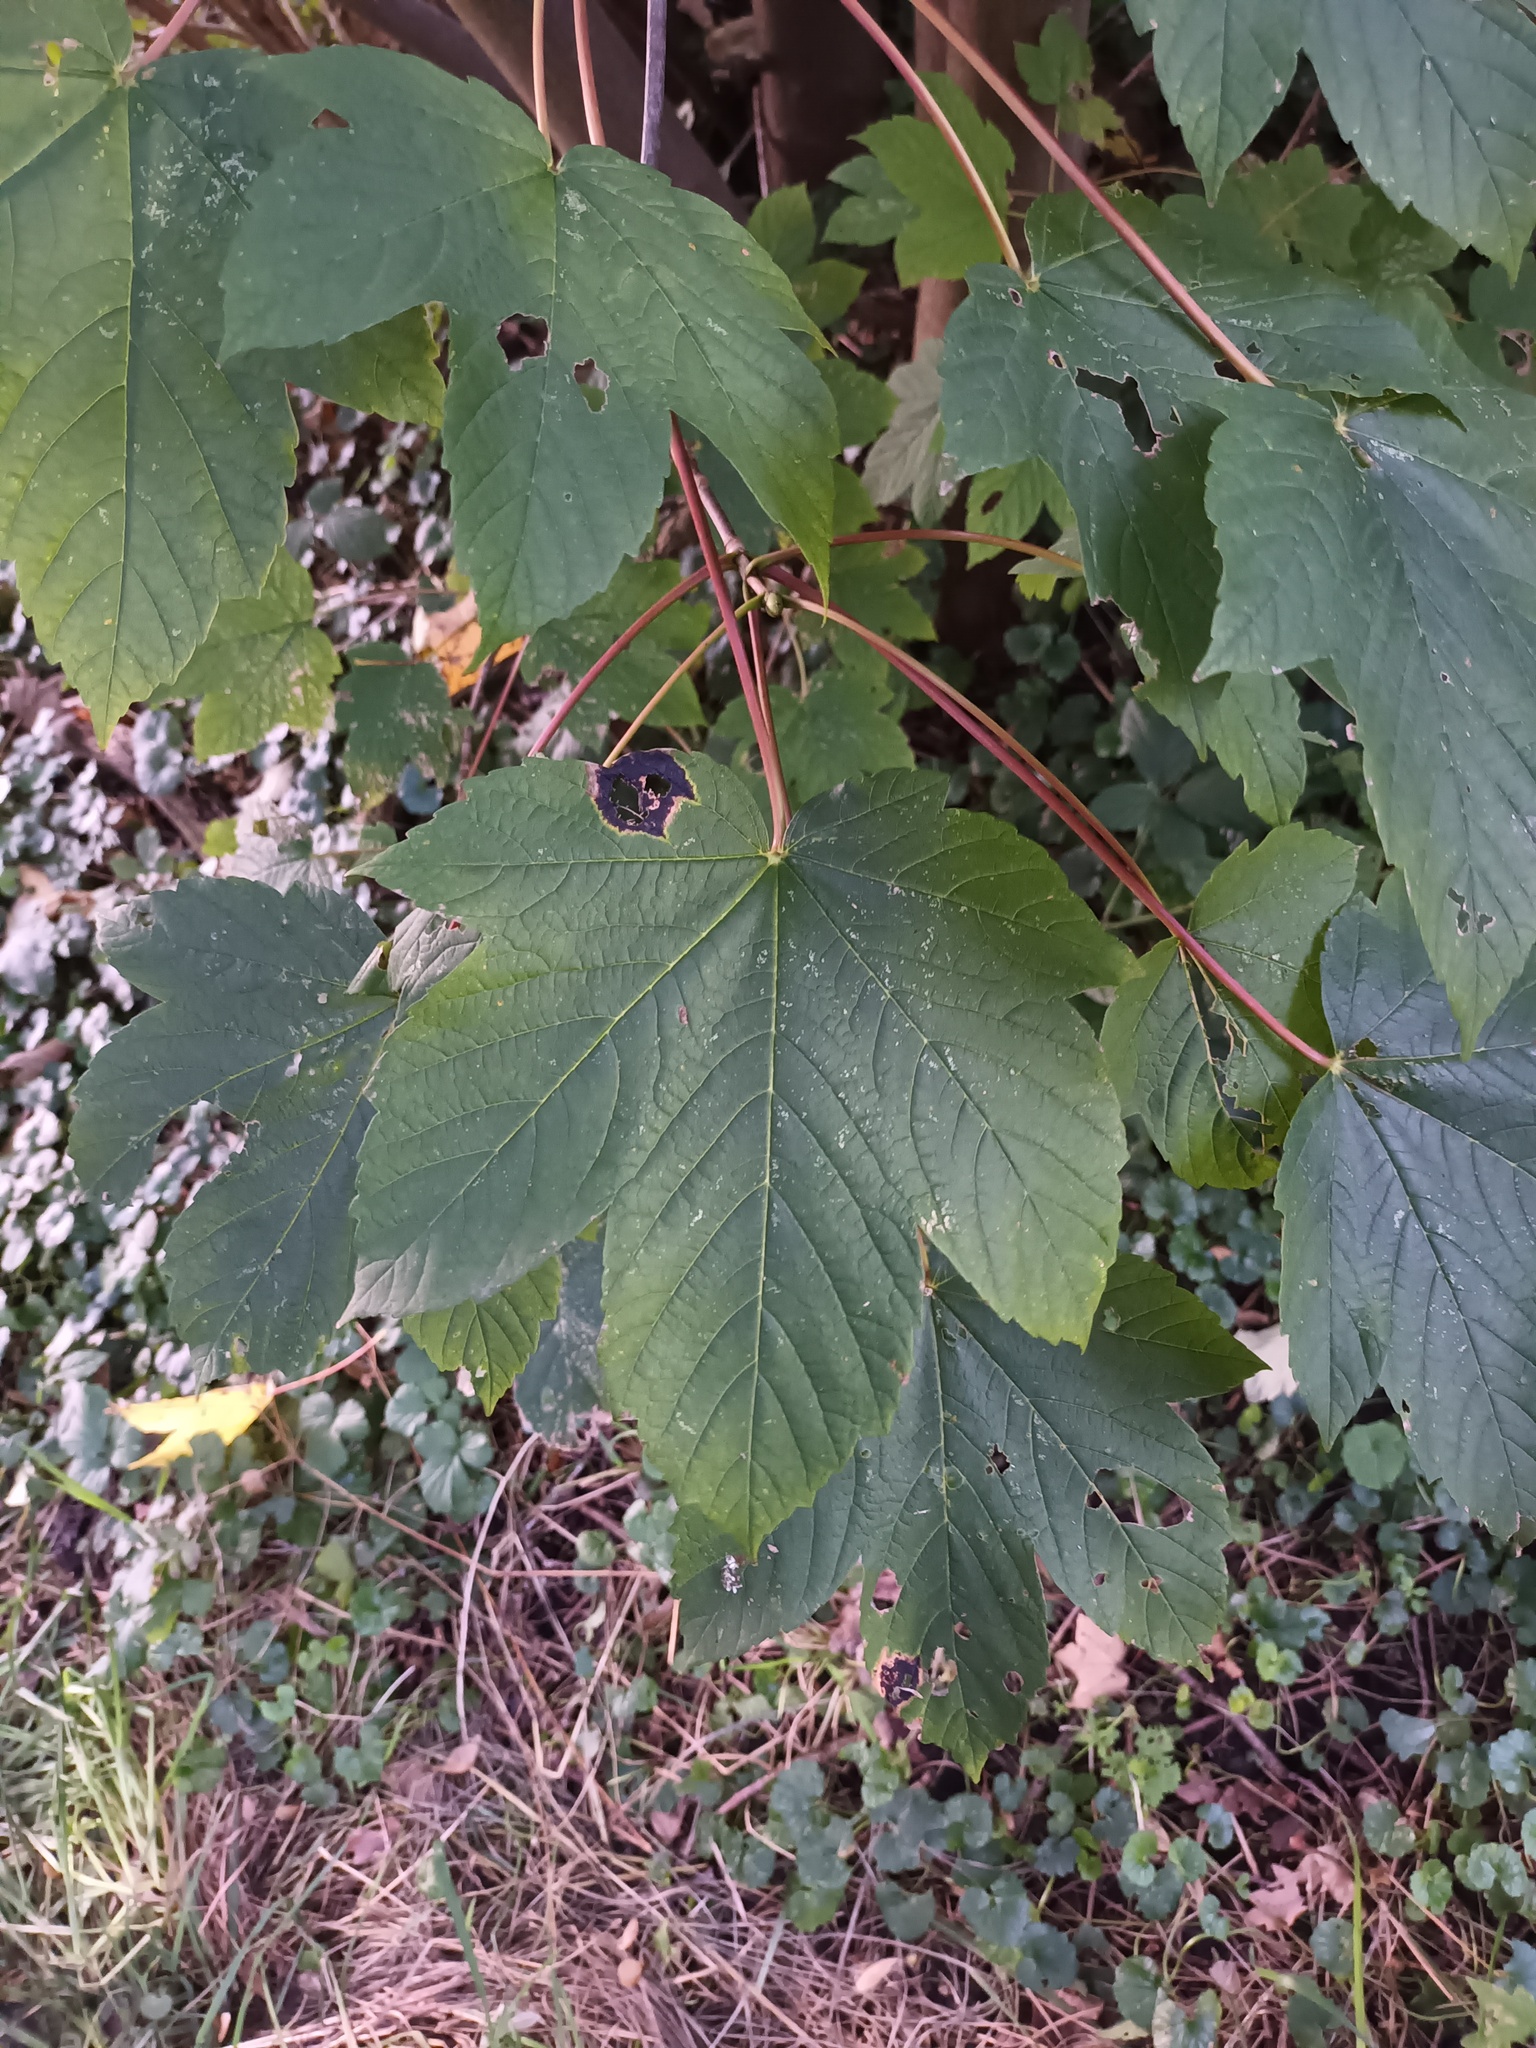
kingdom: Plantae
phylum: Tracheophyta
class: Magnoliopsida
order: Sapindales
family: Sapindaceae
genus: Acer
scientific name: Acer pseudoplatanus
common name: Sycamore
